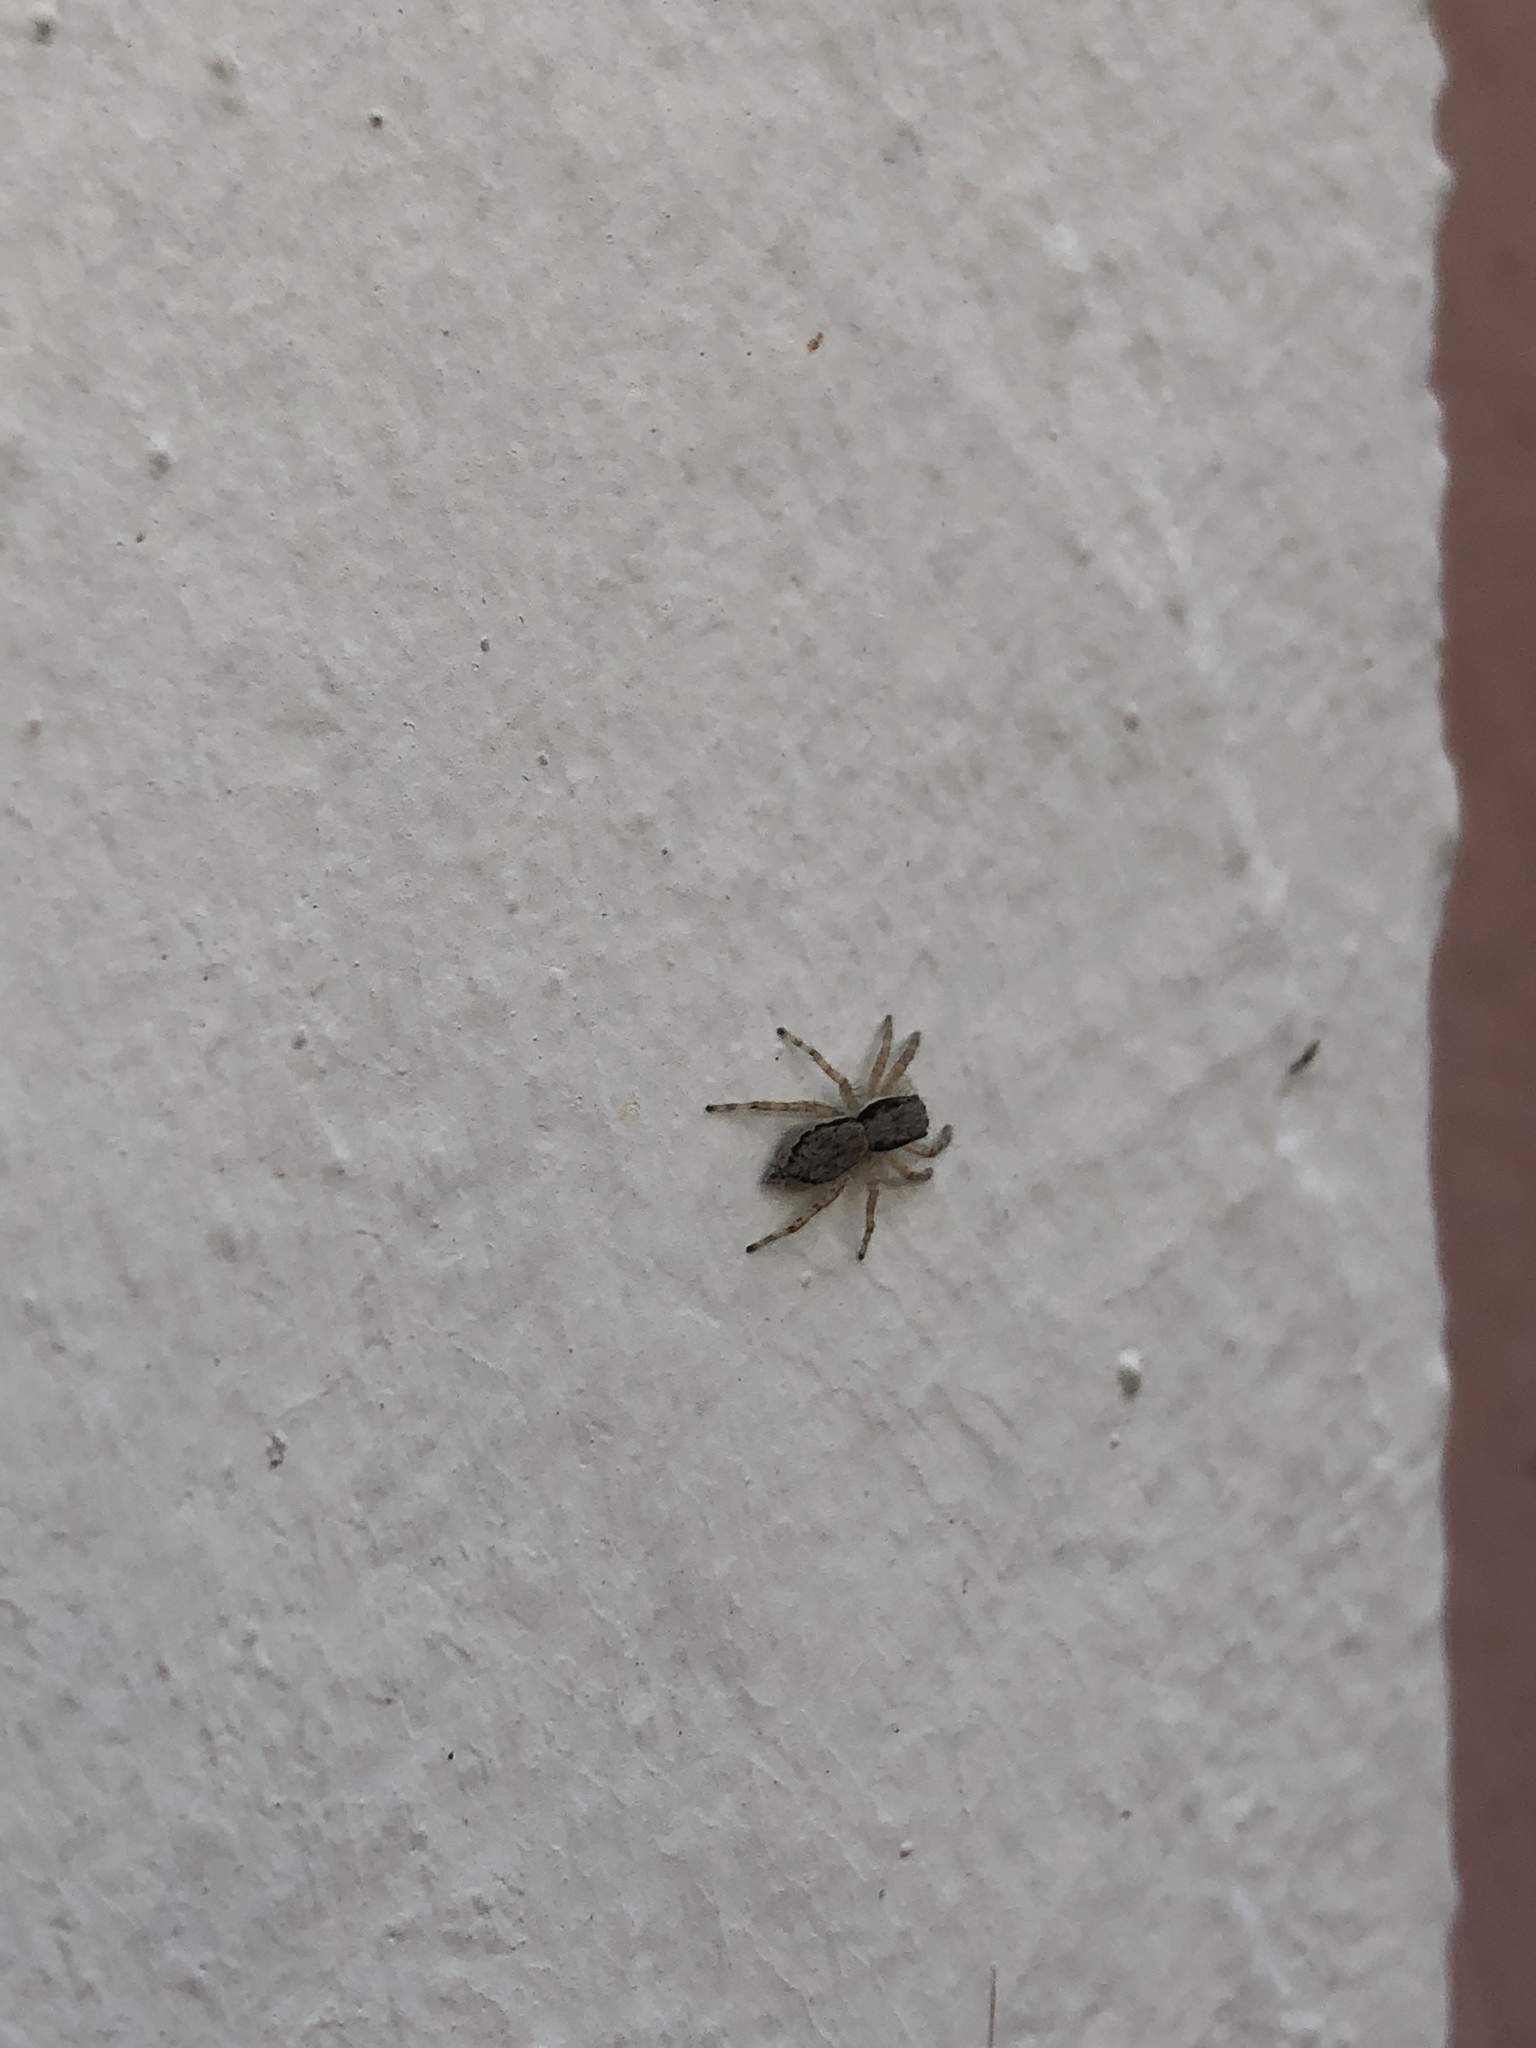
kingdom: Animalia
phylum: Arthropoda
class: Arachnida
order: Araneae
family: Salticidae
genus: Menemerus
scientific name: Menemerus bivittatus
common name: Gray wall jumper
